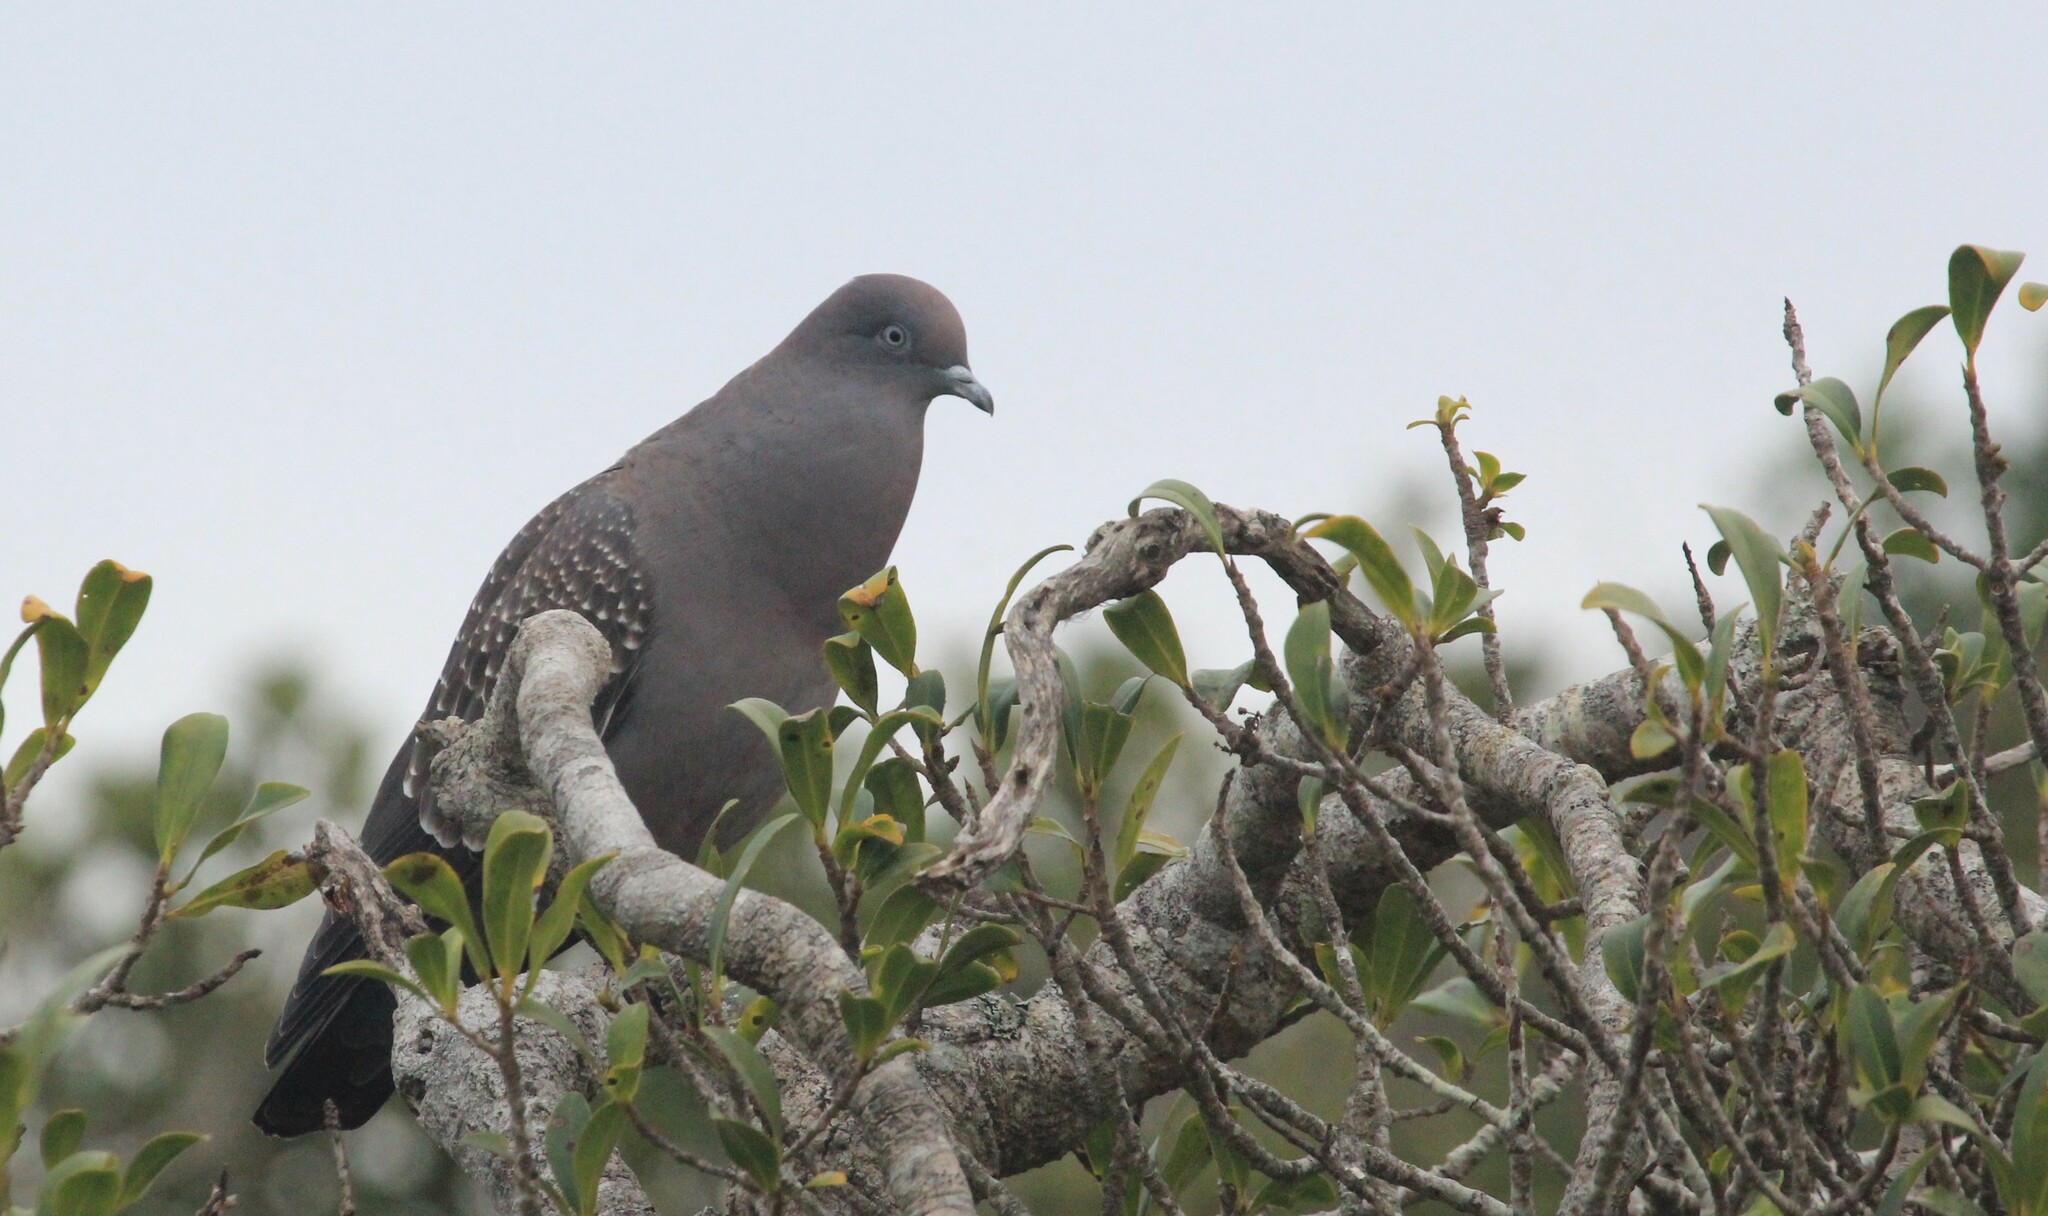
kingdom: Animalia
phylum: Chordata
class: Aves
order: Columbiformes
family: Columbidae
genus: Patagioenas
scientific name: Patagioenas maculosa
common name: Spot-winged pigeon
